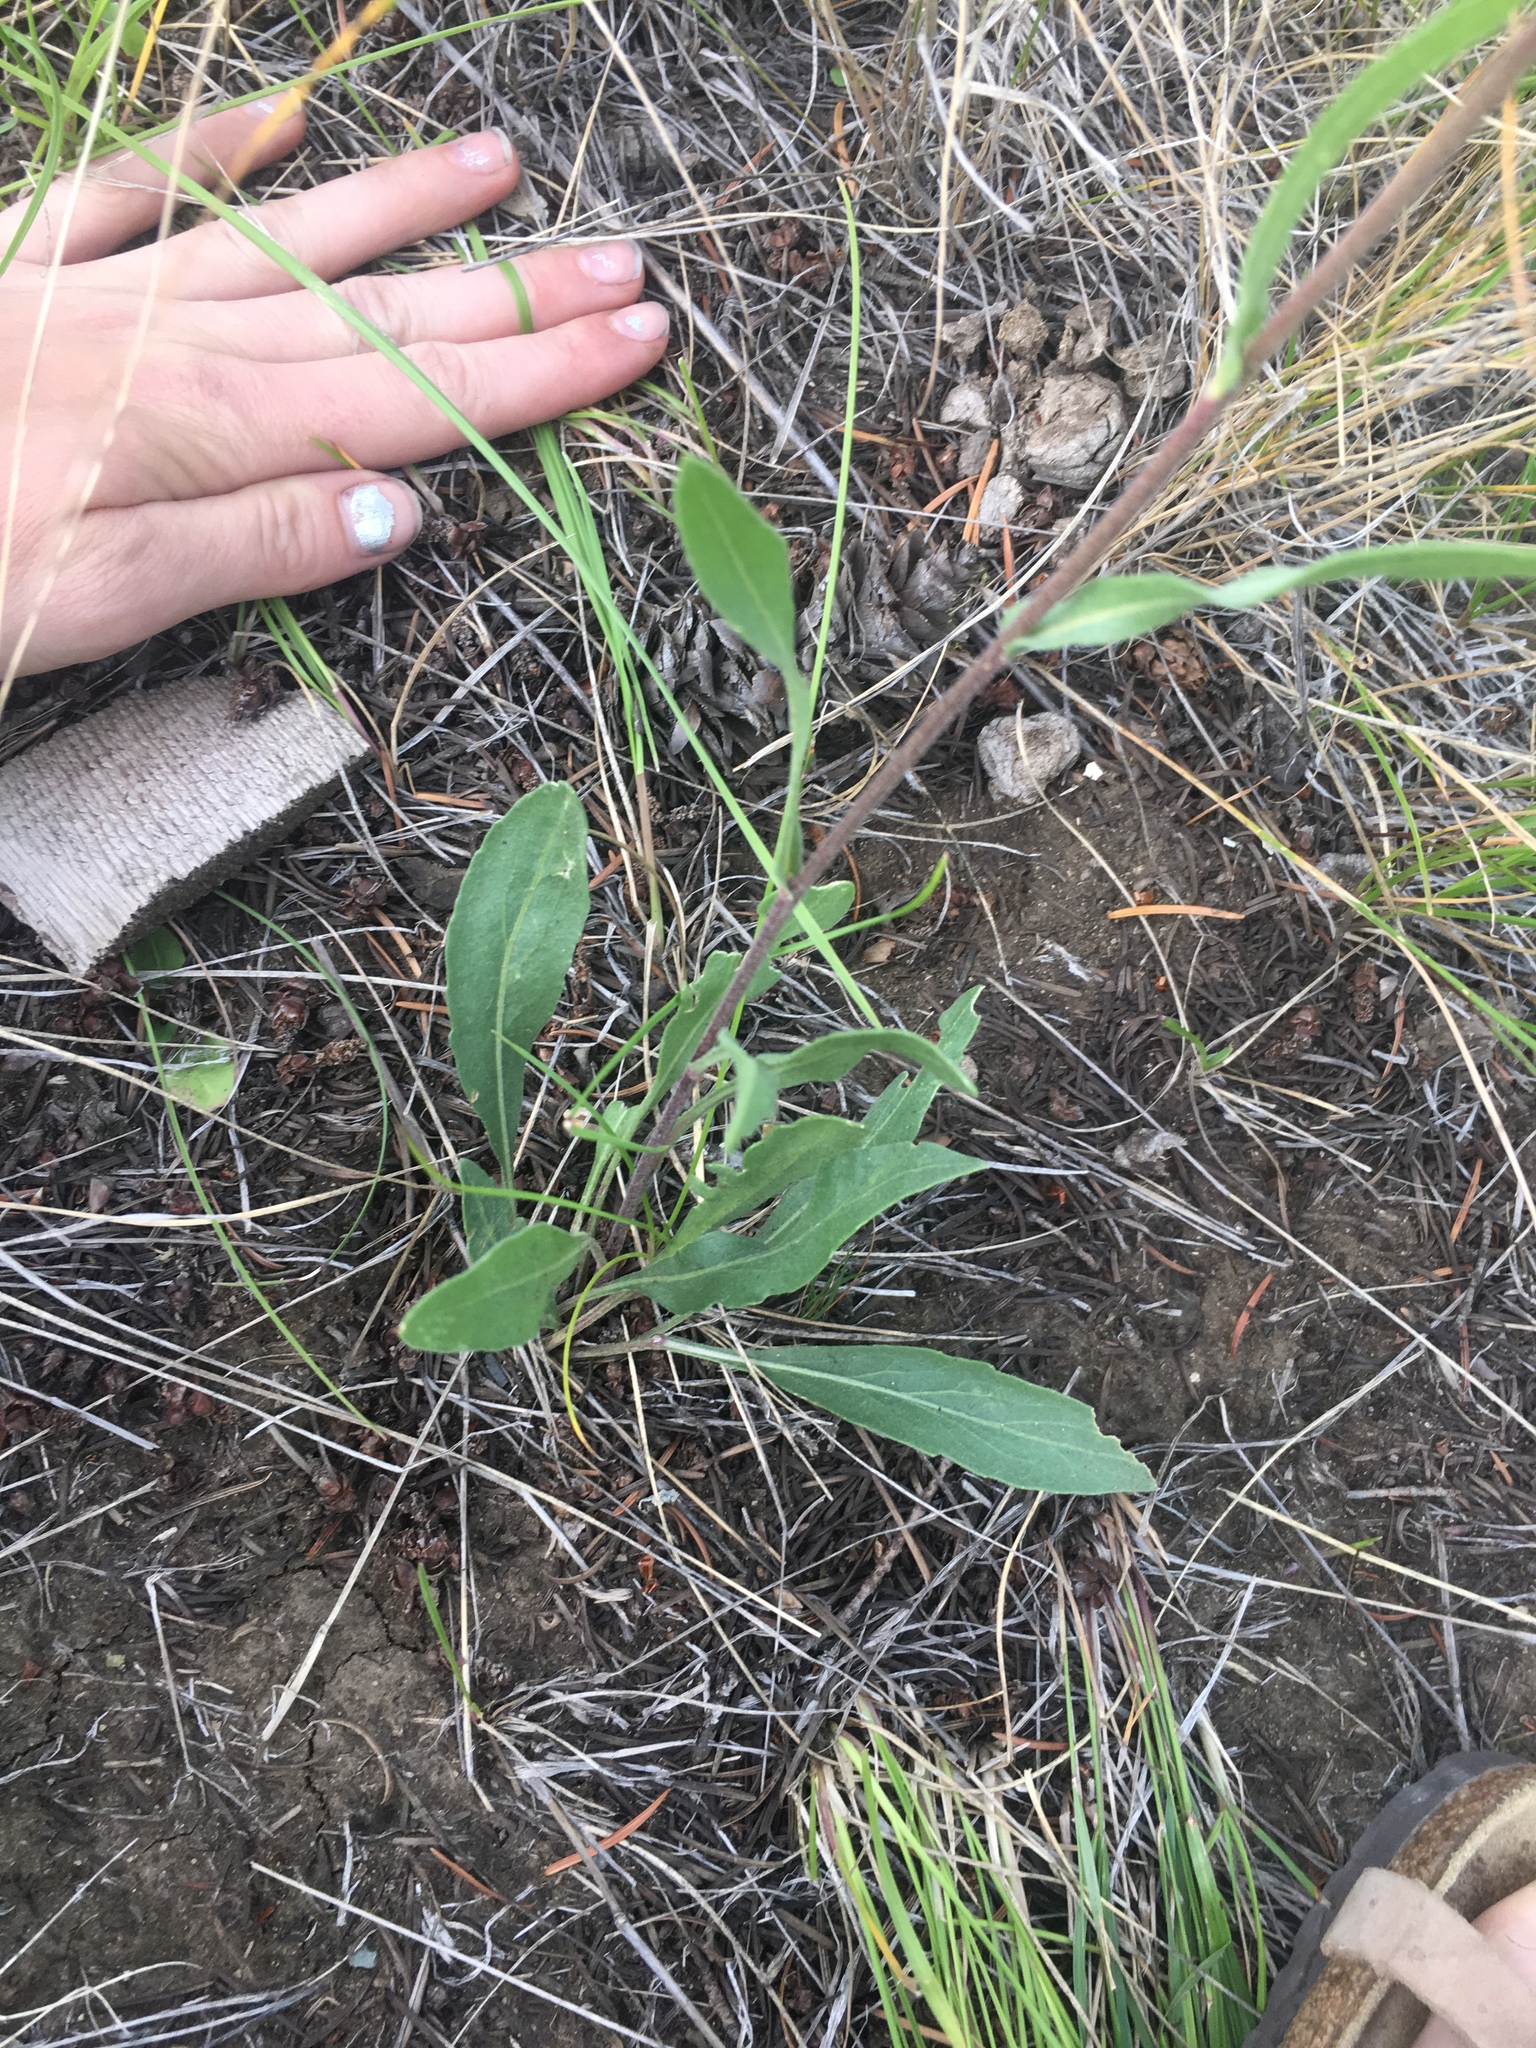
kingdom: Plantae
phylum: Tracheophyta
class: Magnoliopsida
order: Asterales
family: Asteraceae
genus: Gaillardia
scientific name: Gaillardia aristata
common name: Blanket-flower
